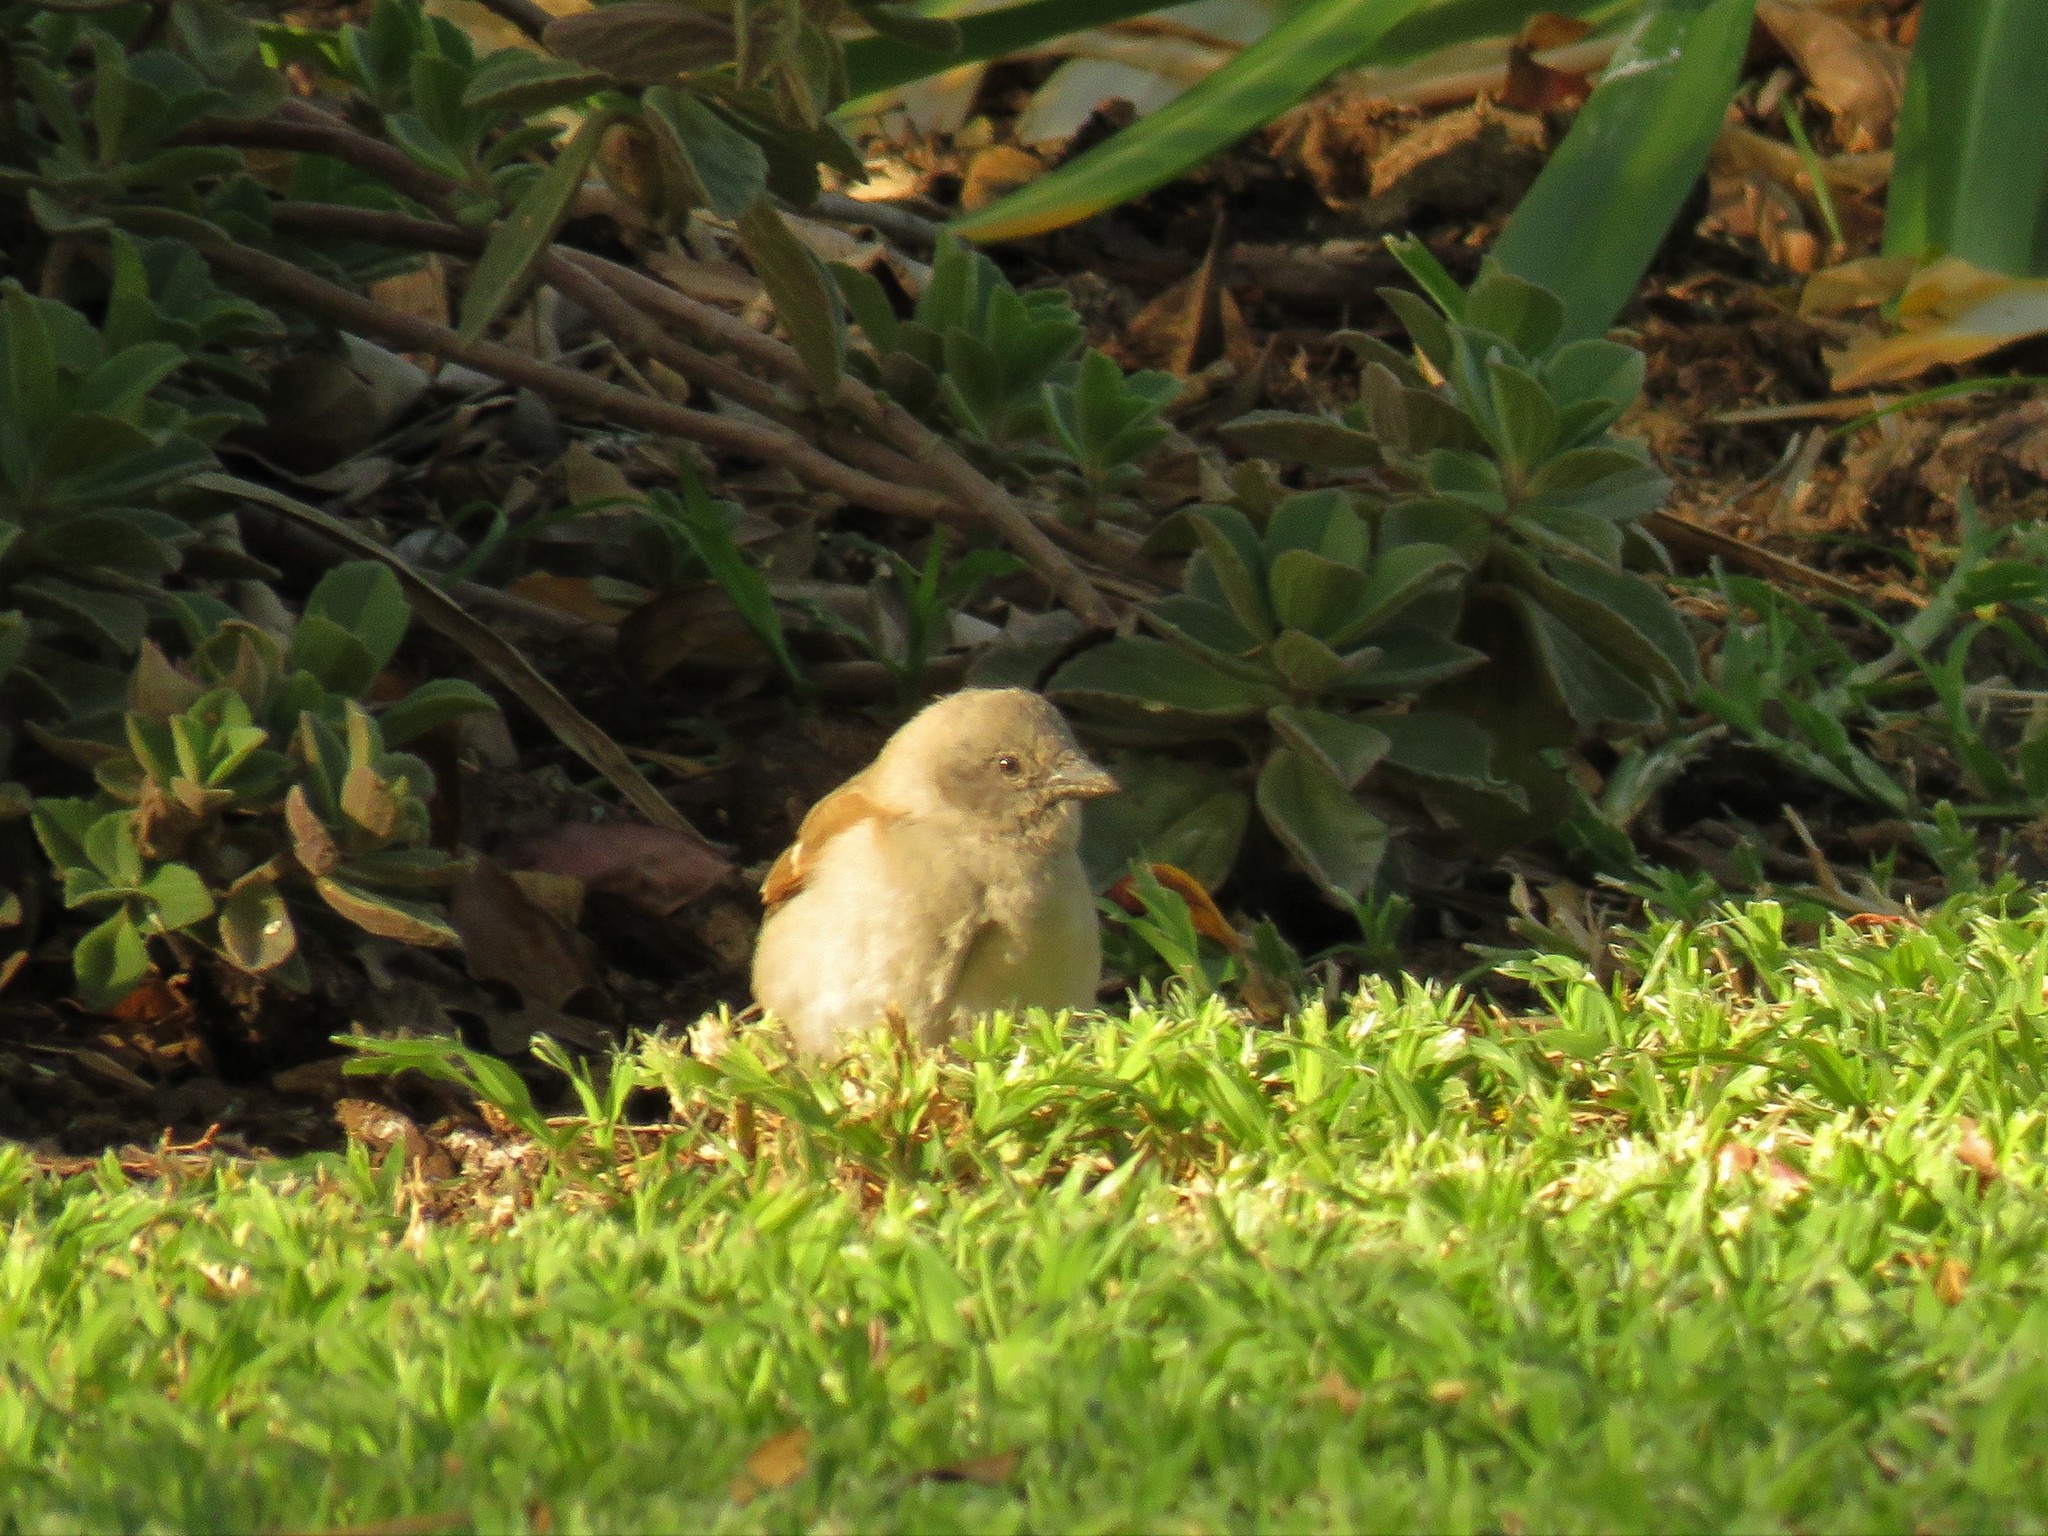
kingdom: Animalia
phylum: Chordata
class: Aves
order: Passeriformes
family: Passeridae
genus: Passer
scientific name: Passer diffusus
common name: Southern grey-headed sparrow
